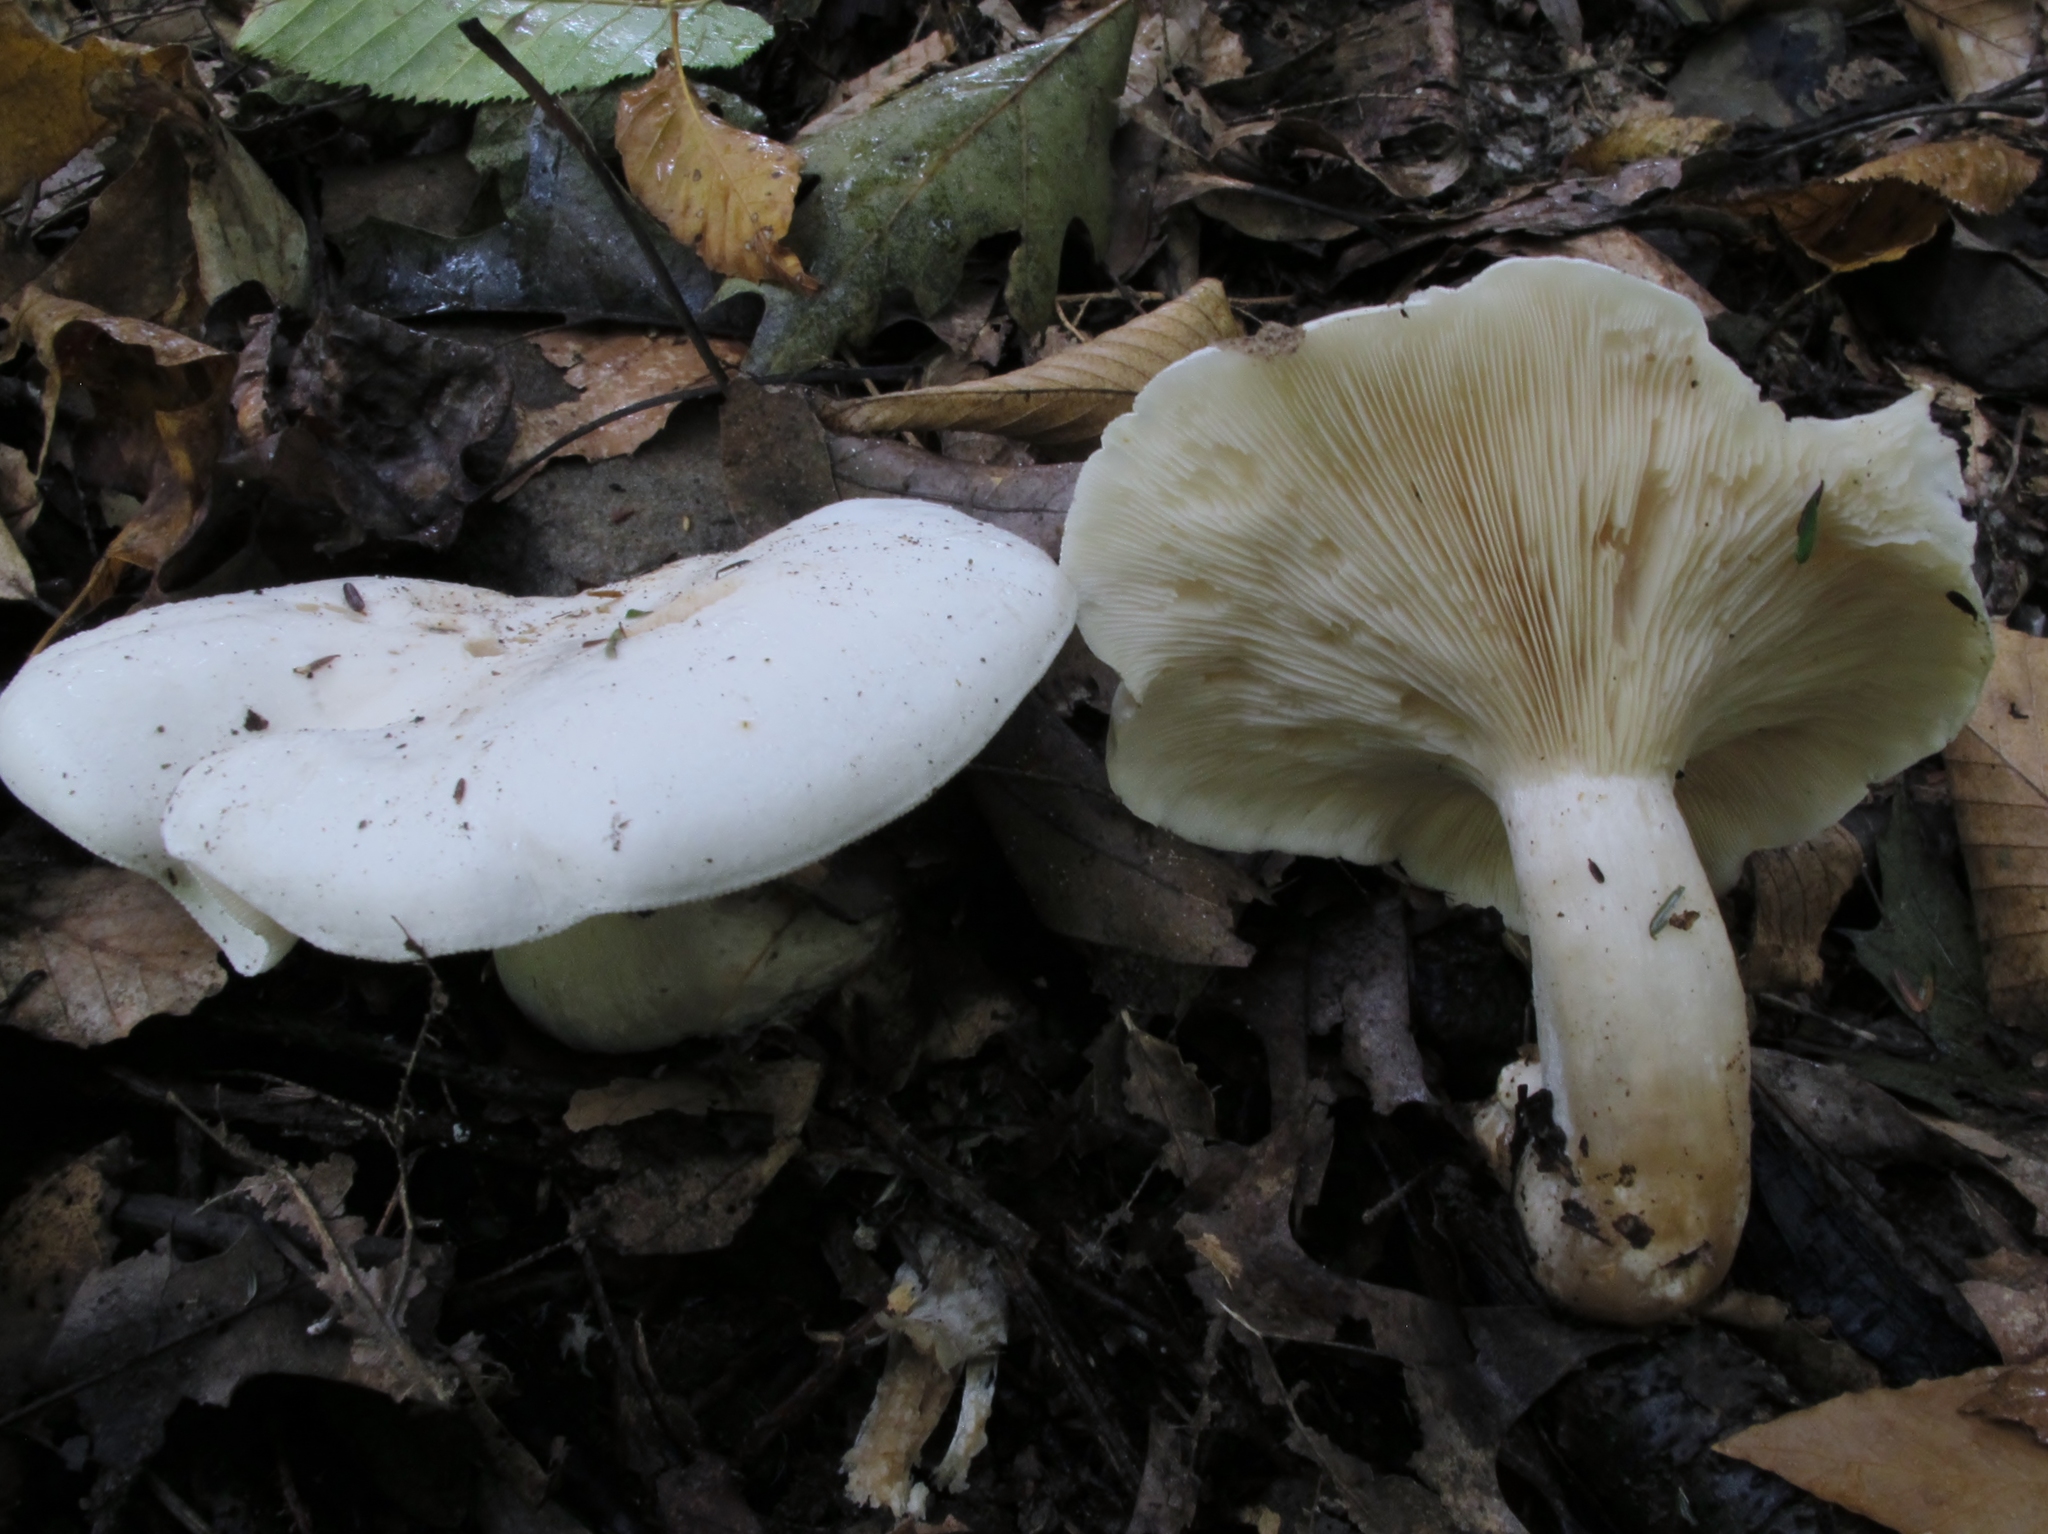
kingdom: Fungi
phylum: Basidiomycota
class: Agaricomycetes
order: Agaricales
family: Tricholomataceae
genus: Clitocybe
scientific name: Clitocybe robusta
